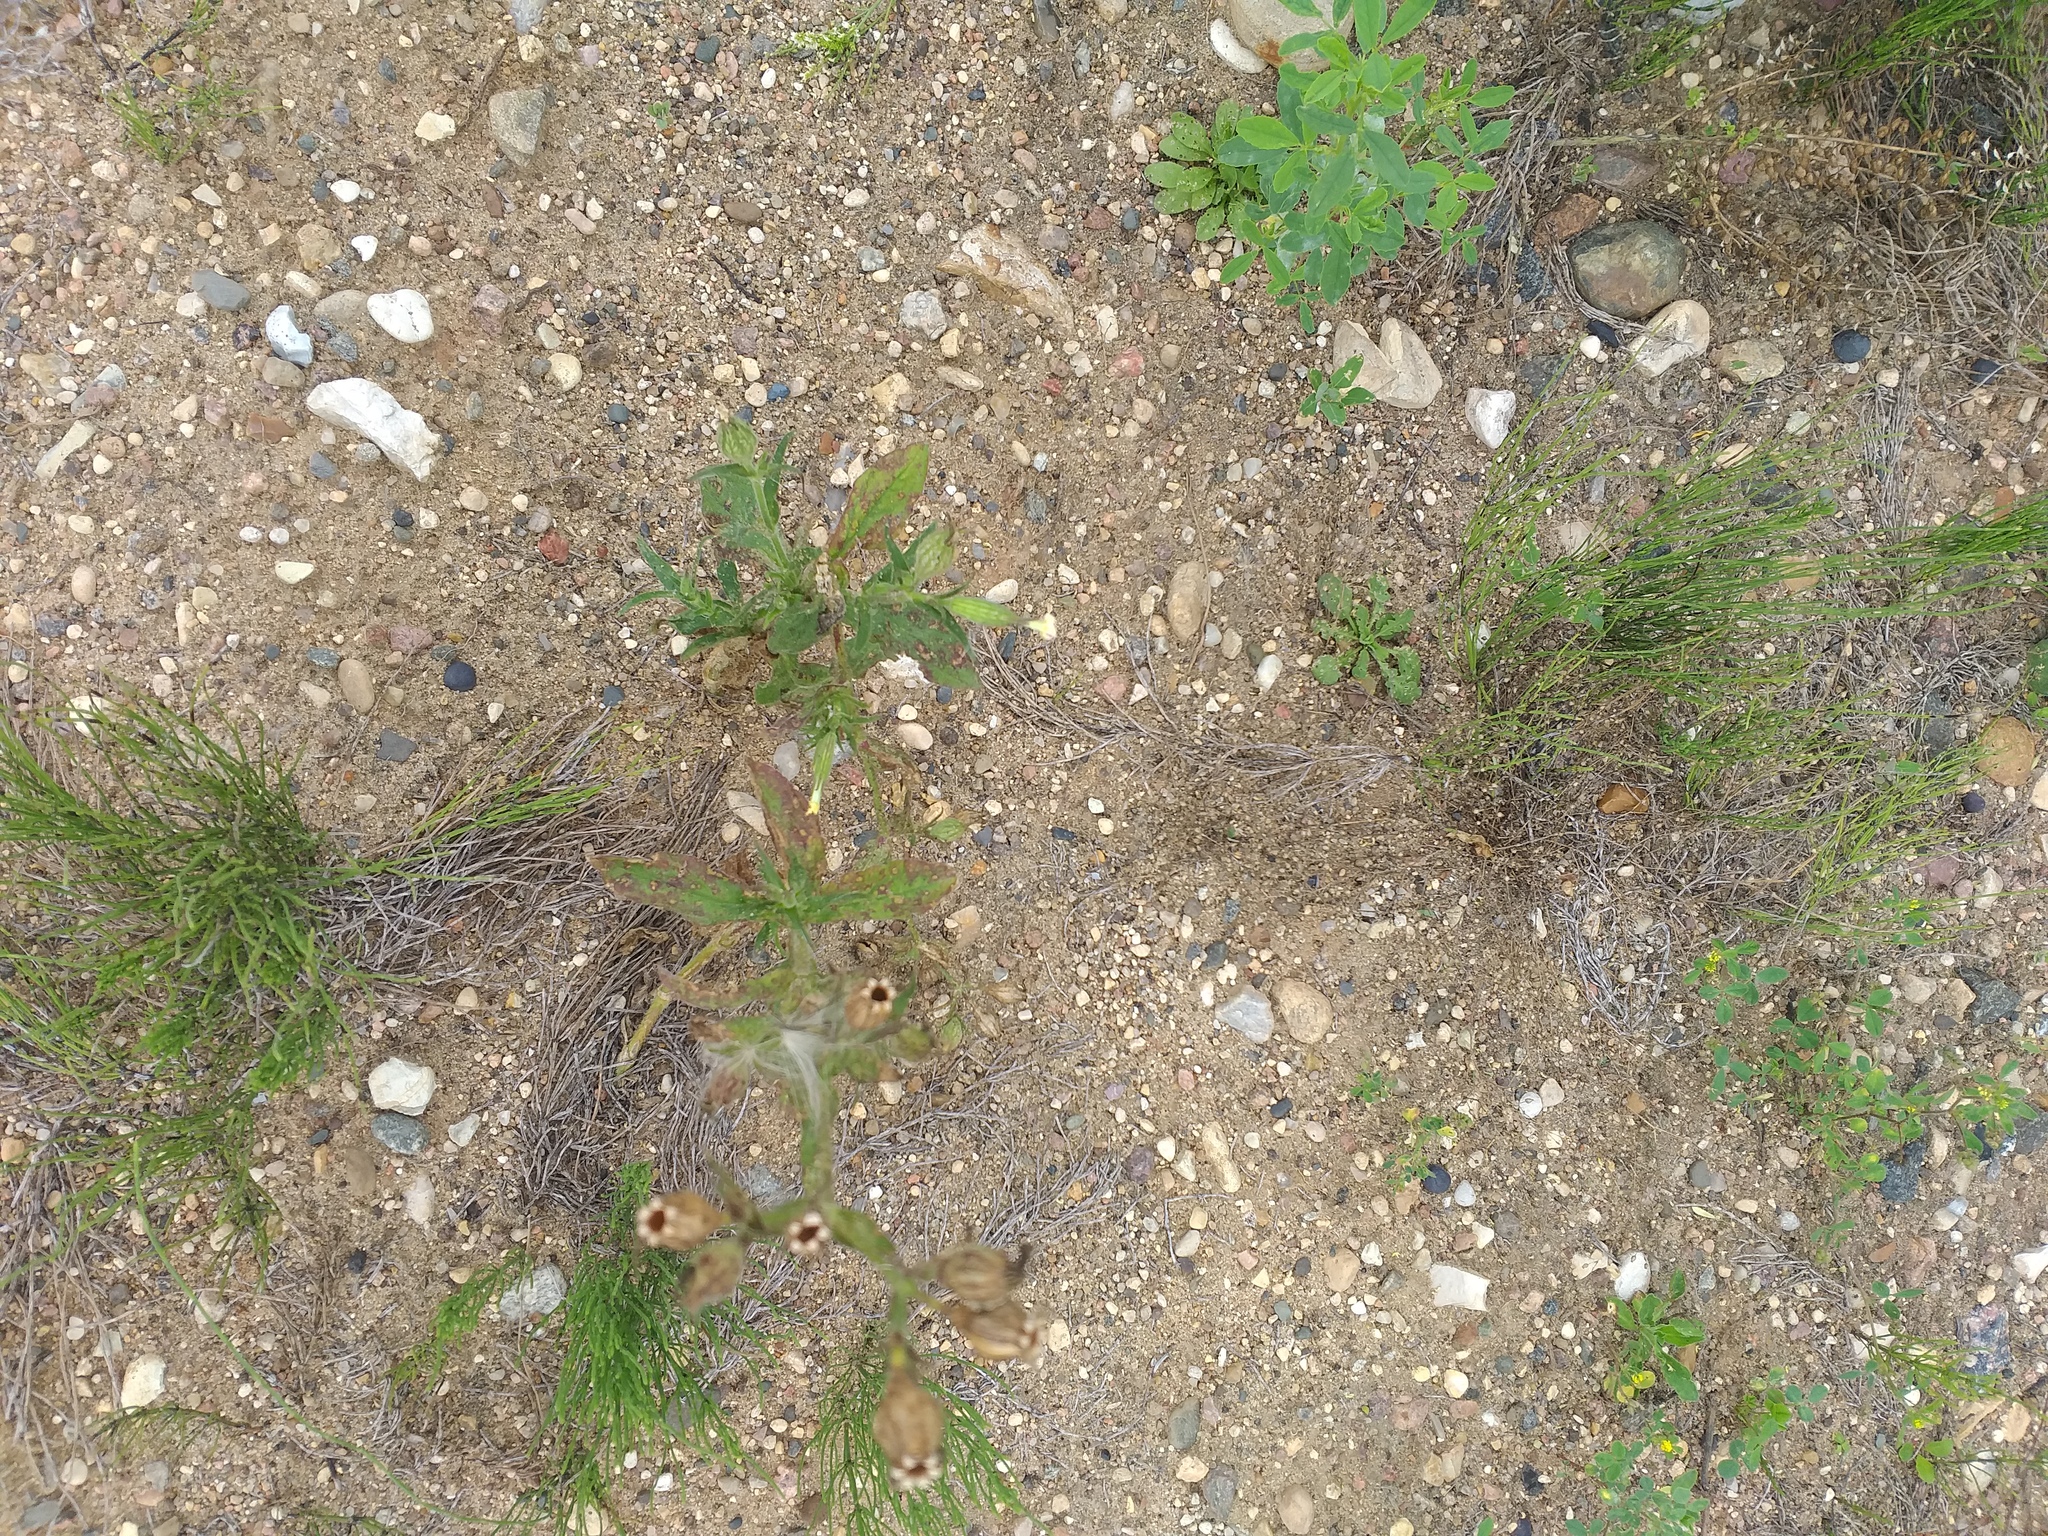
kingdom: Plantae
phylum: Tracheophyta
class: Magnoliopsida
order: Caryophyllales
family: Caryophyllaceae
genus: Silene
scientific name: Silene noctiflora
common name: Night-flowering catchfly
